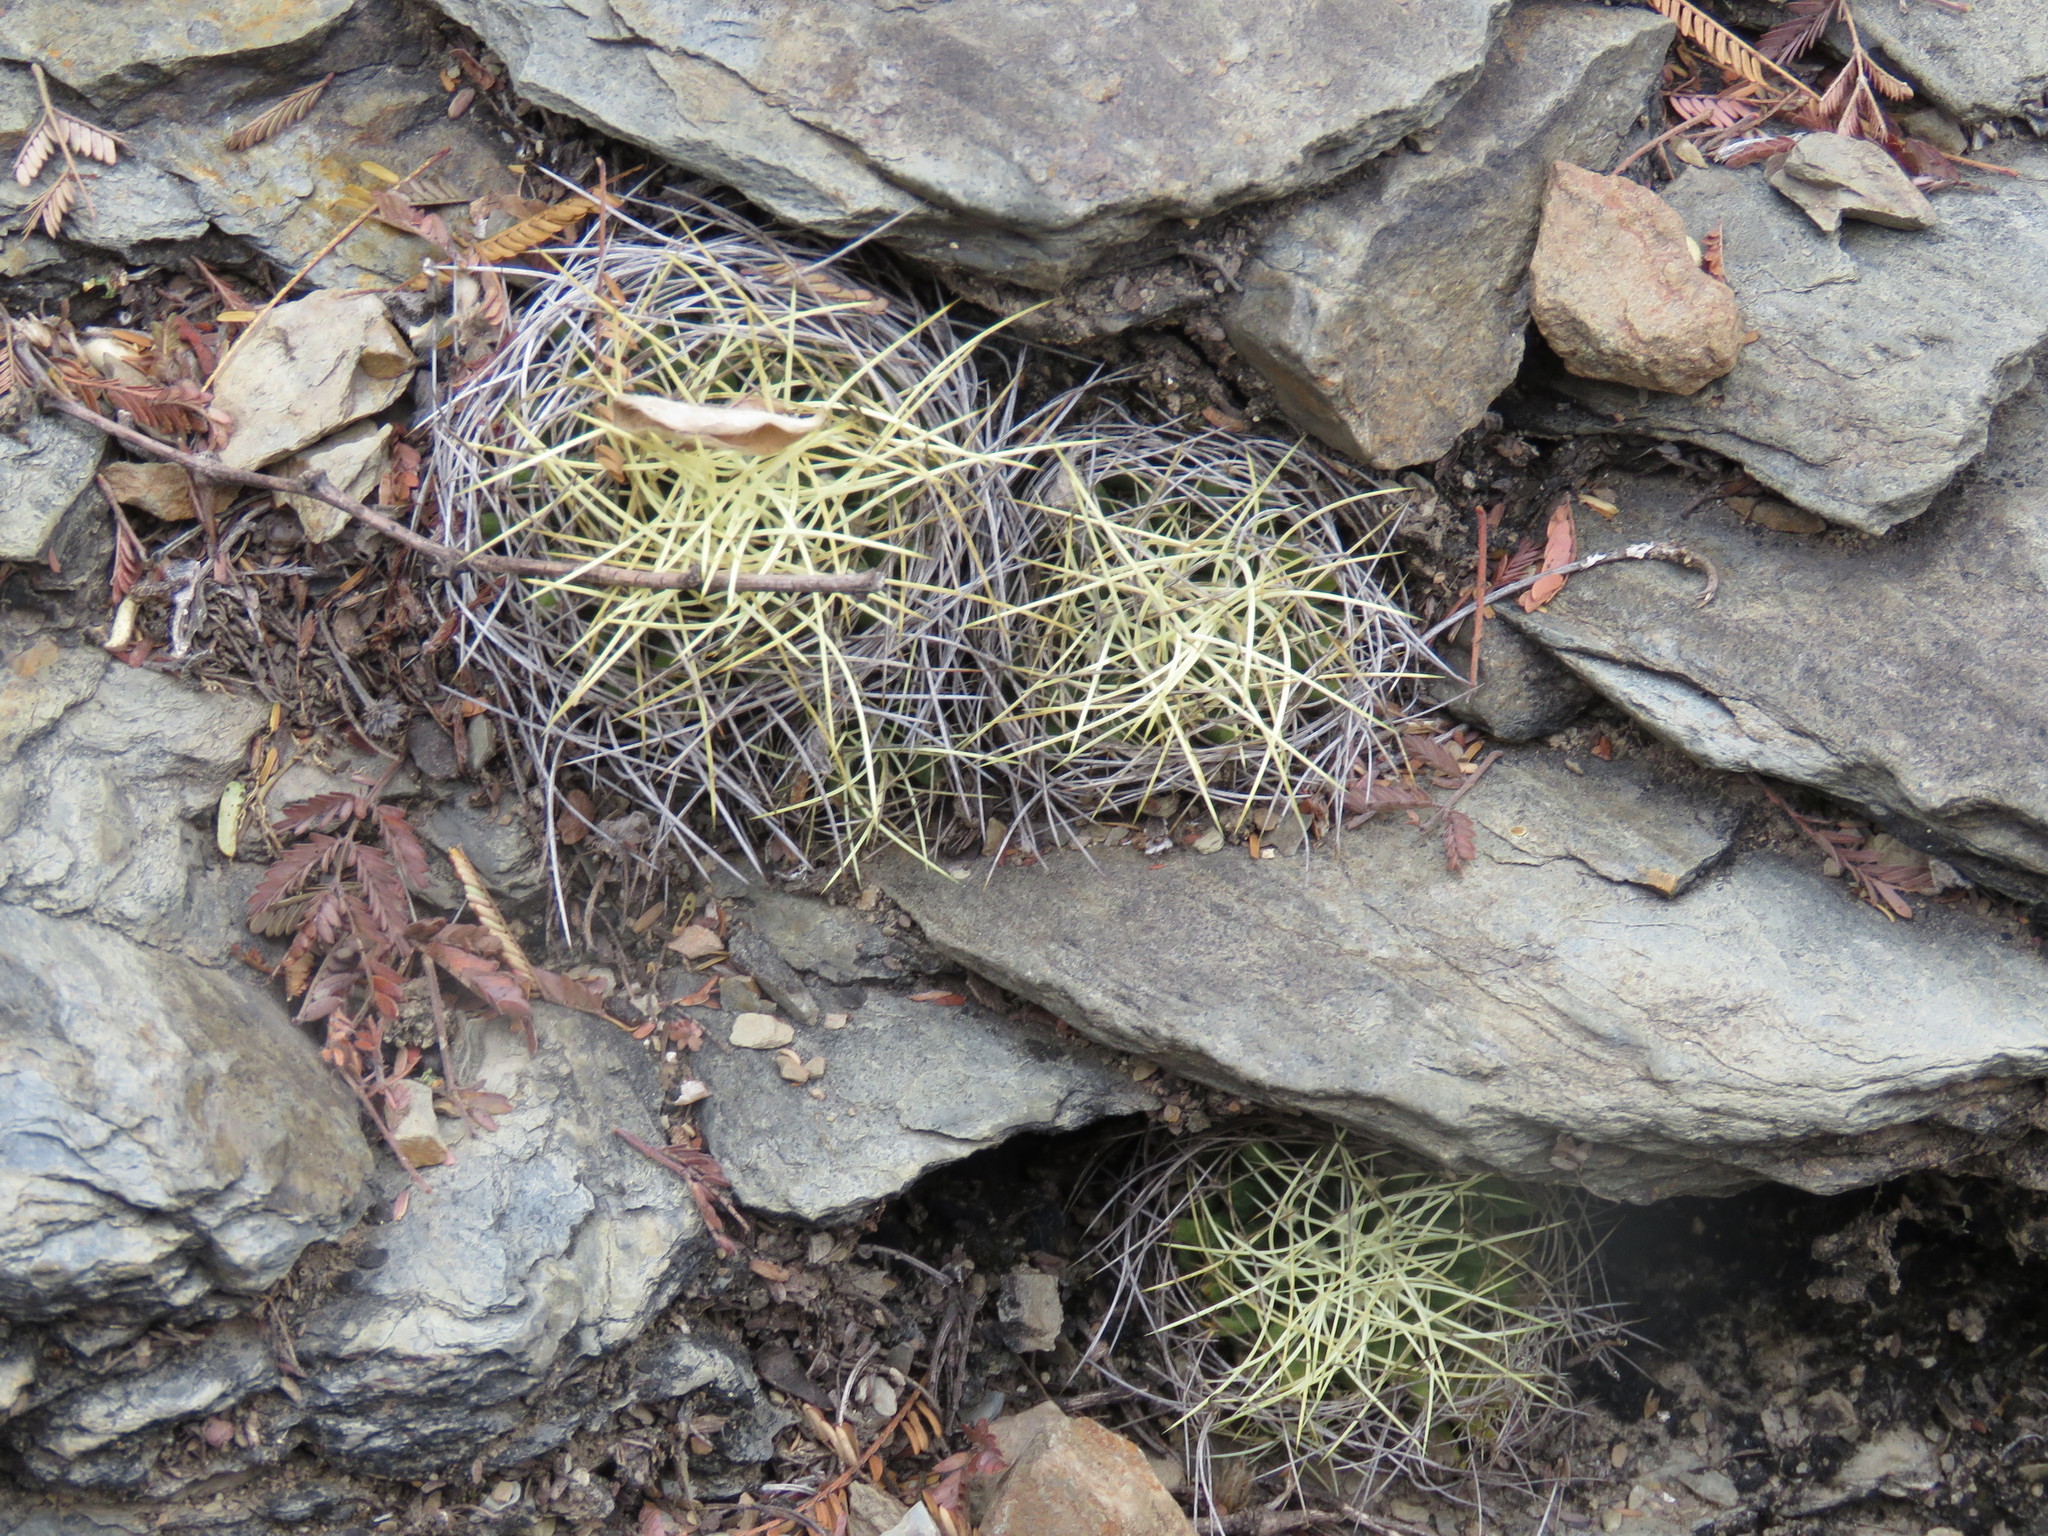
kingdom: Plantae
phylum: Tracheophyta
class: Magnoliopsida
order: Caryophyllales
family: Cactaceae
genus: Mammillaria
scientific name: Mammillaria decipiens
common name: Bird's-nest pincushion
